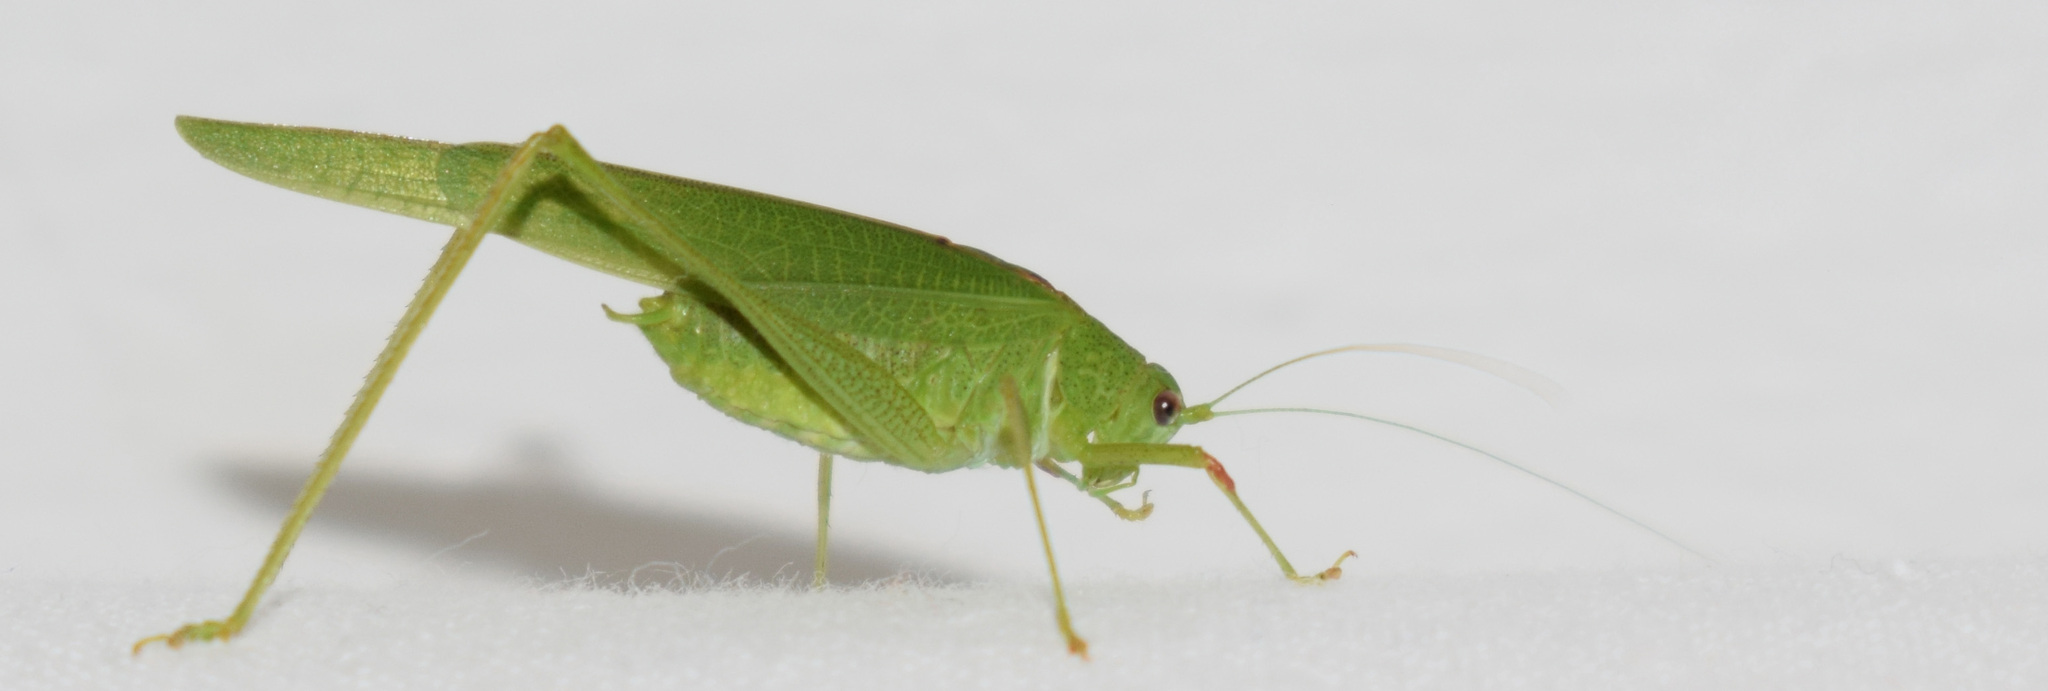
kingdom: Animalia
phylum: Arthropoda
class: Insecta
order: Orthoptera
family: Tettigoniidae
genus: Phaneroptera
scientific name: Phaneroptera nana
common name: Southern sickle bush-cricket
